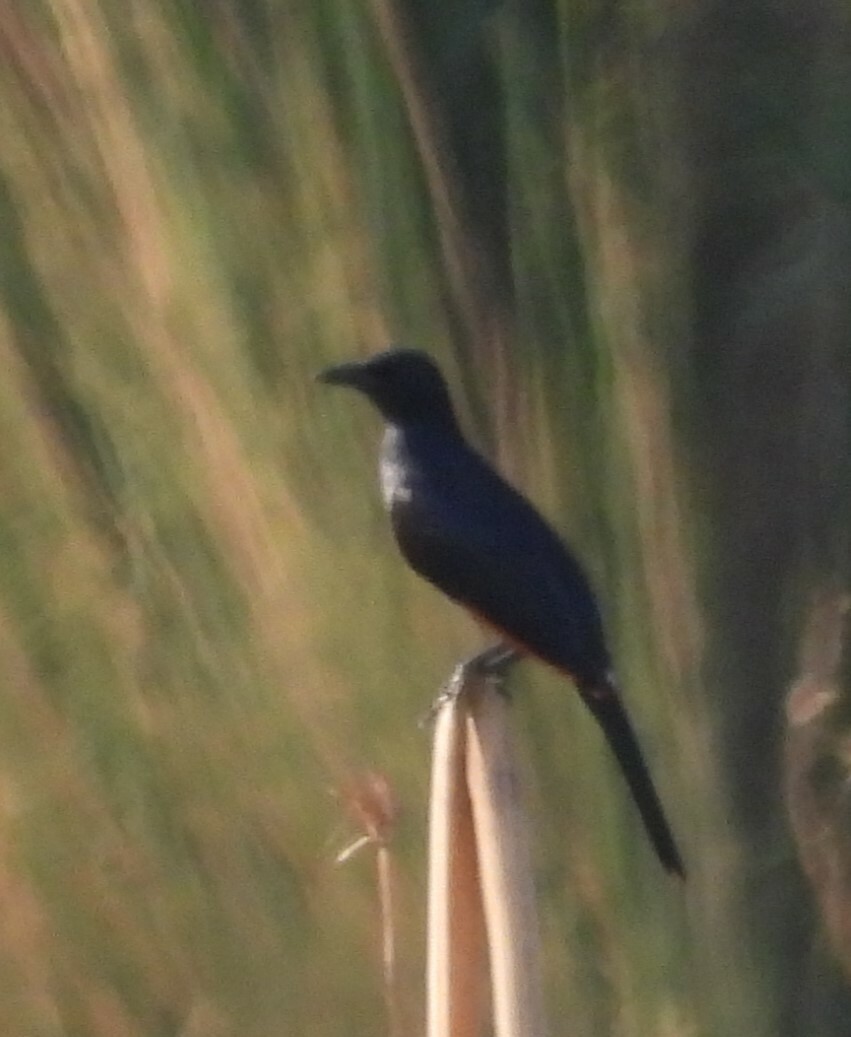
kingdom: Animalia
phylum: Chordata
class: Aves
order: Passeriformes
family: Sturnidae
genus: Onychognathus
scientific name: Onychognathus morio
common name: Red-winged starling
